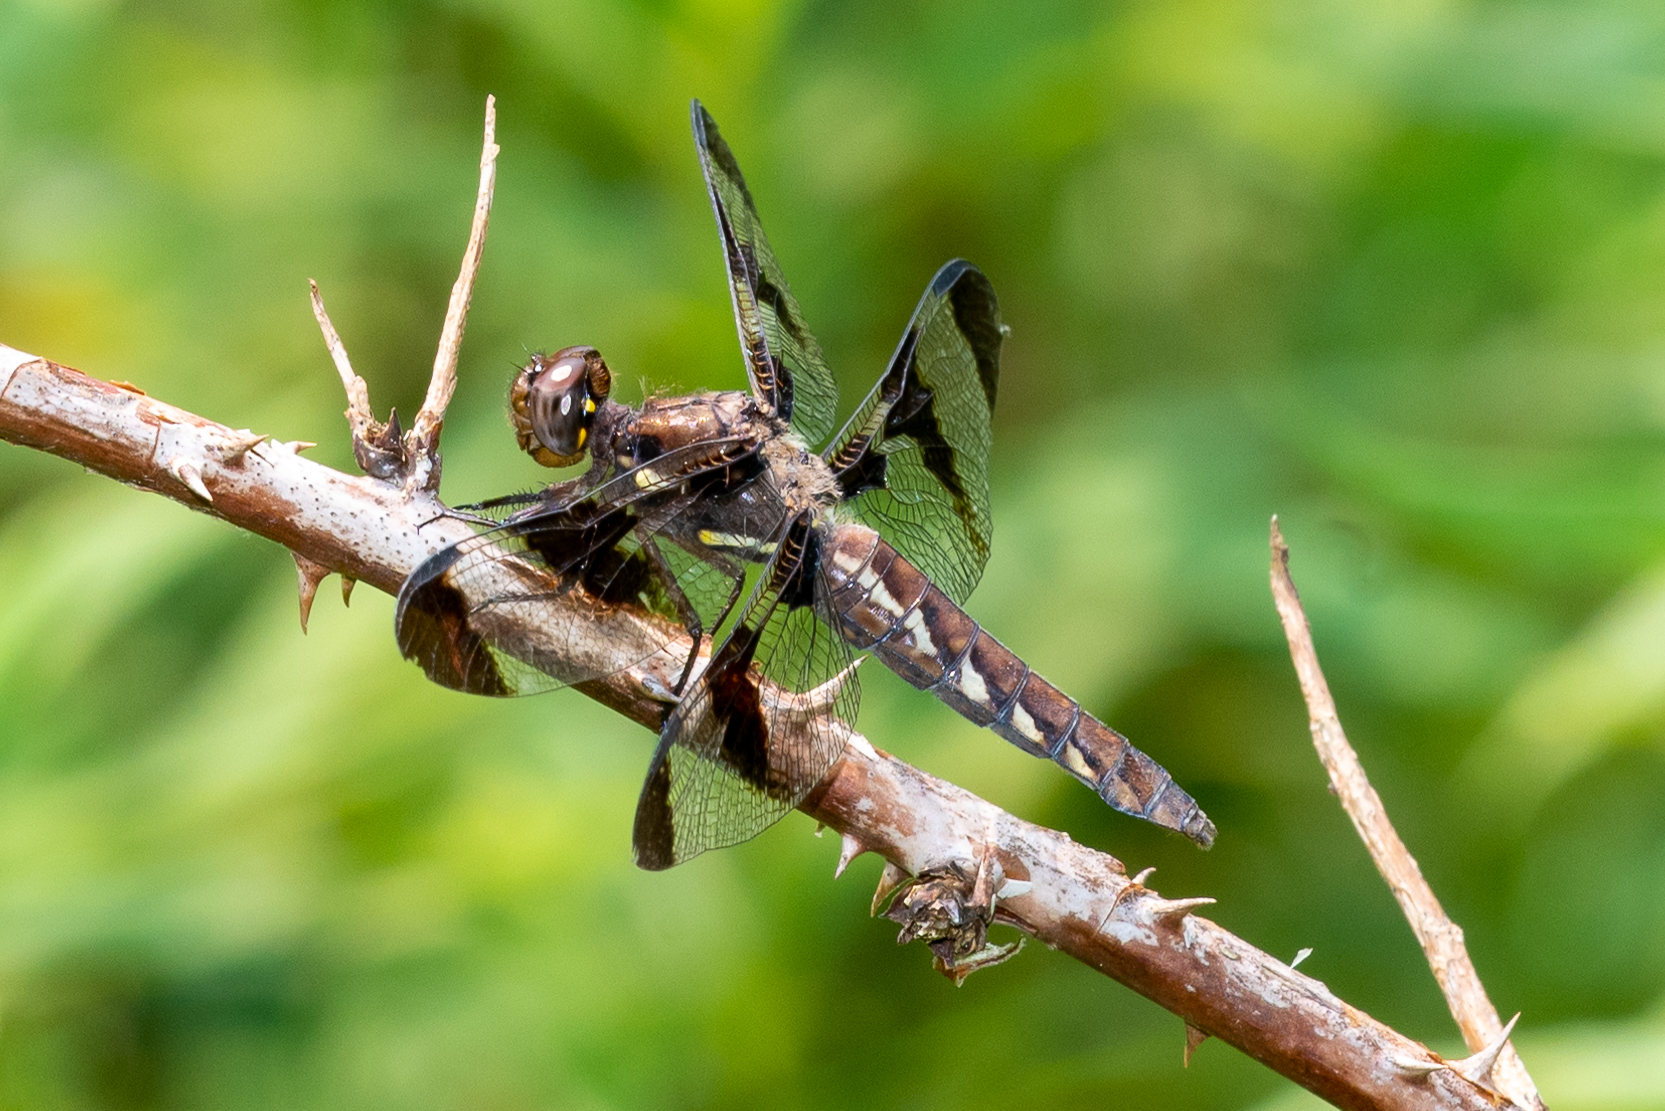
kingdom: Animalia
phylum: Arthropoda
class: Insecta
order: Odonata
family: Libellulidae
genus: Plathemis
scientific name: Plathemis lydia
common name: Common whitetail
